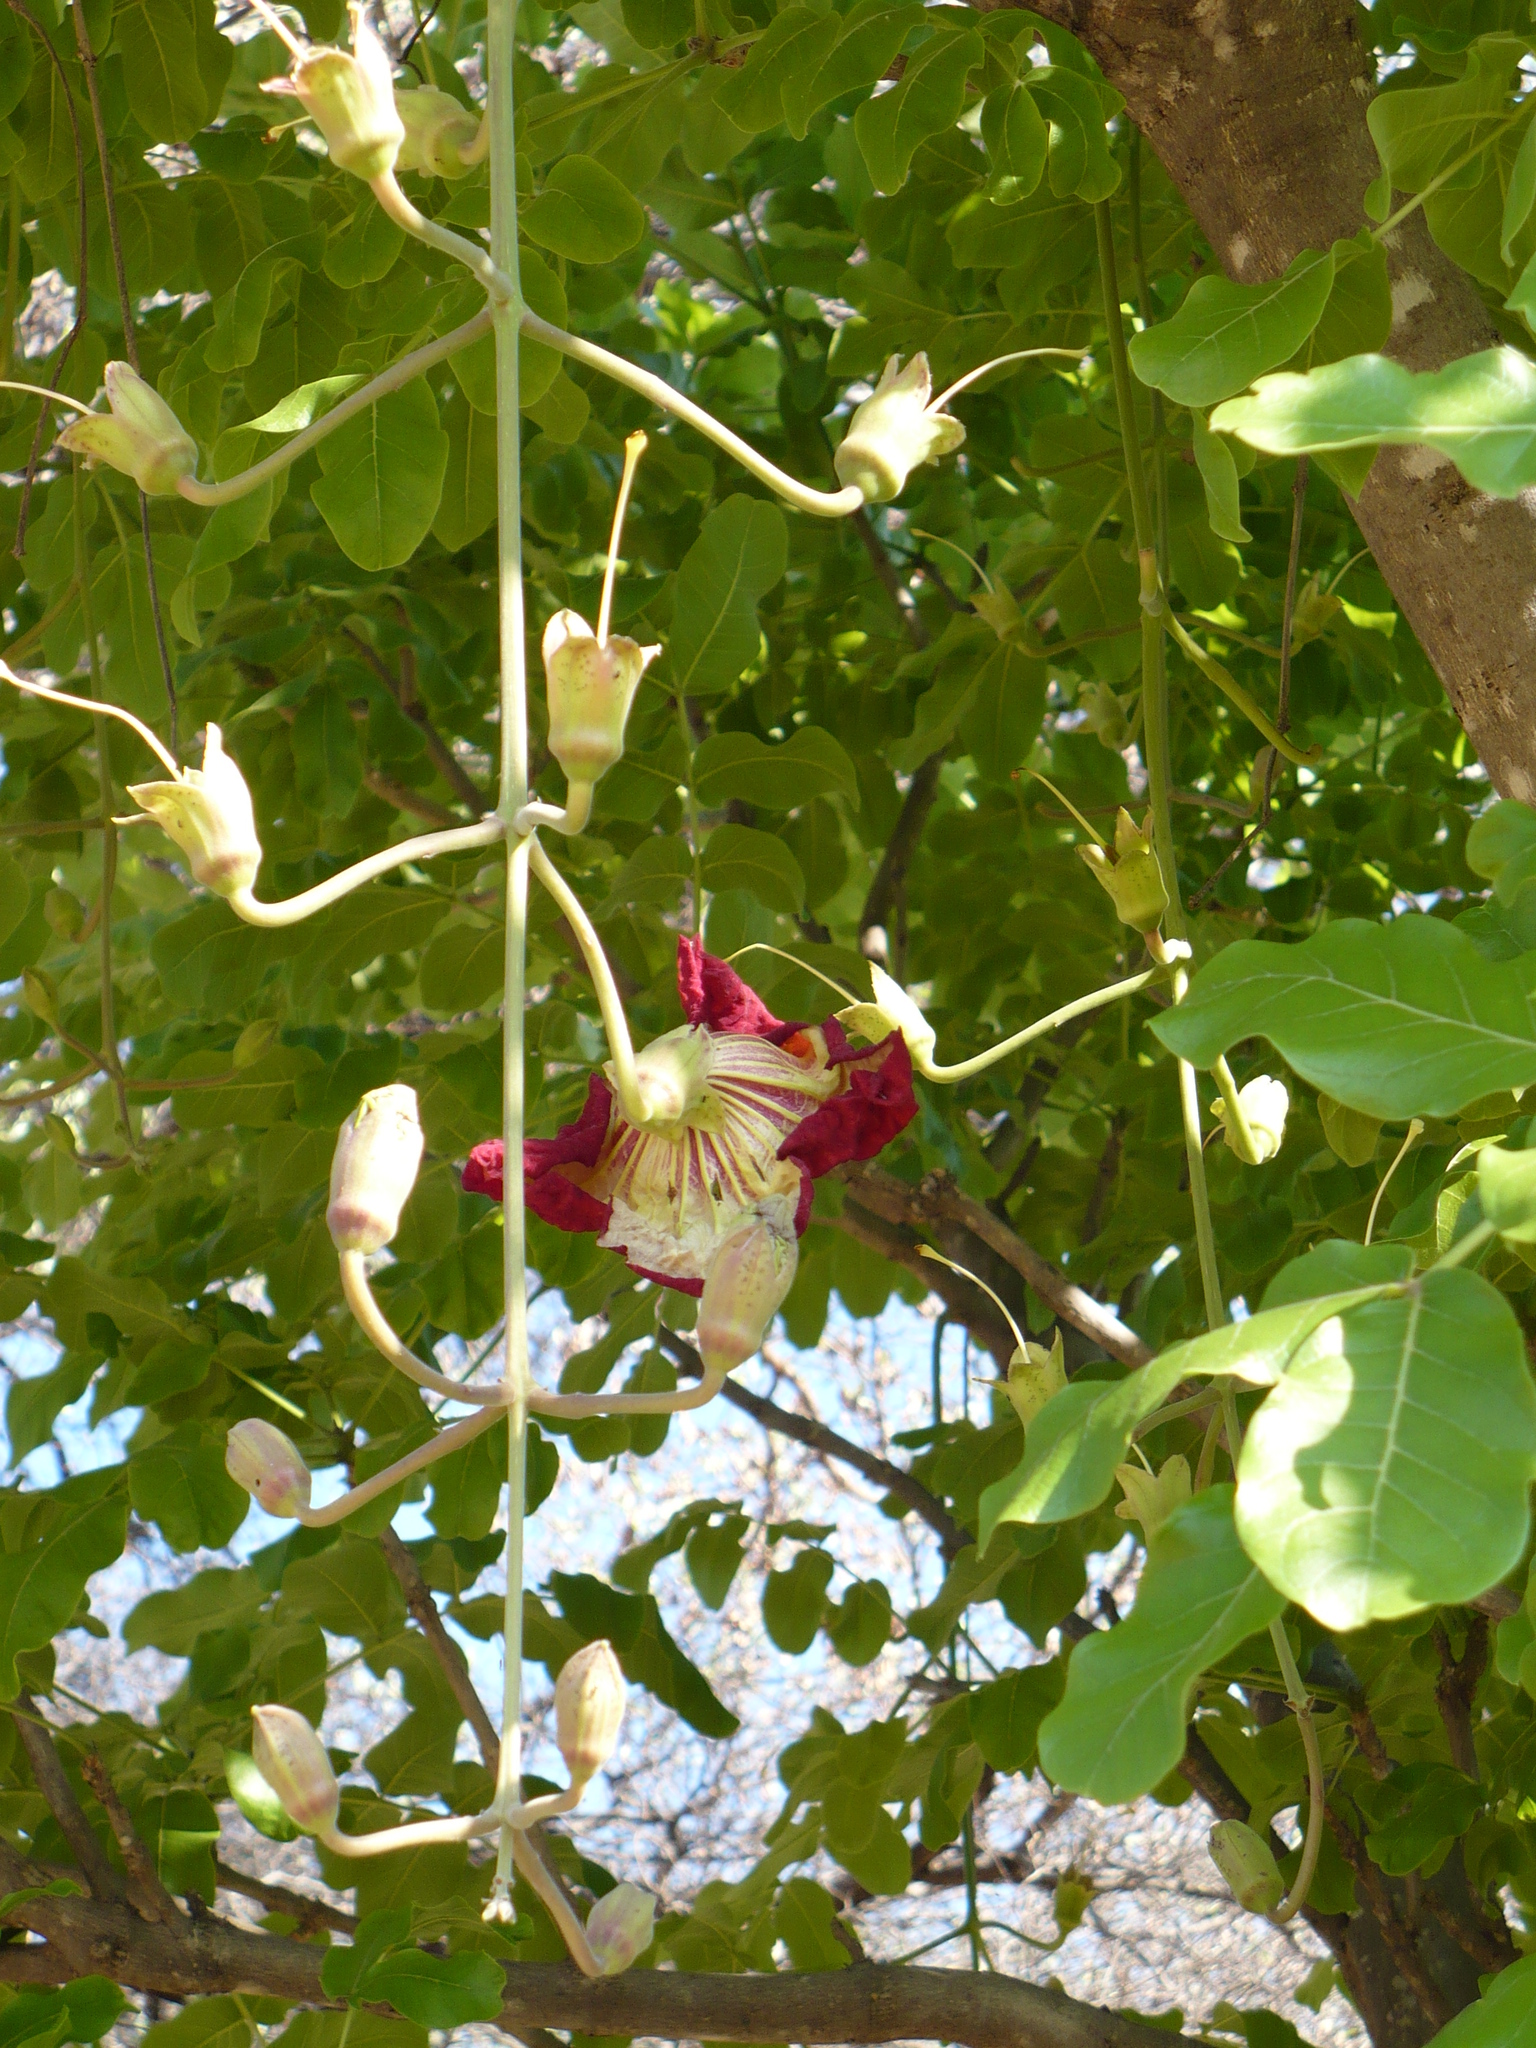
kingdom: Plantae
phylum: Tracheophyta
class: Magnoliopsida
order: Lamiales
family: Bignoniaceae
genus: Kigelia
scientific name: Kigelia africana
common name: Sausage tree
